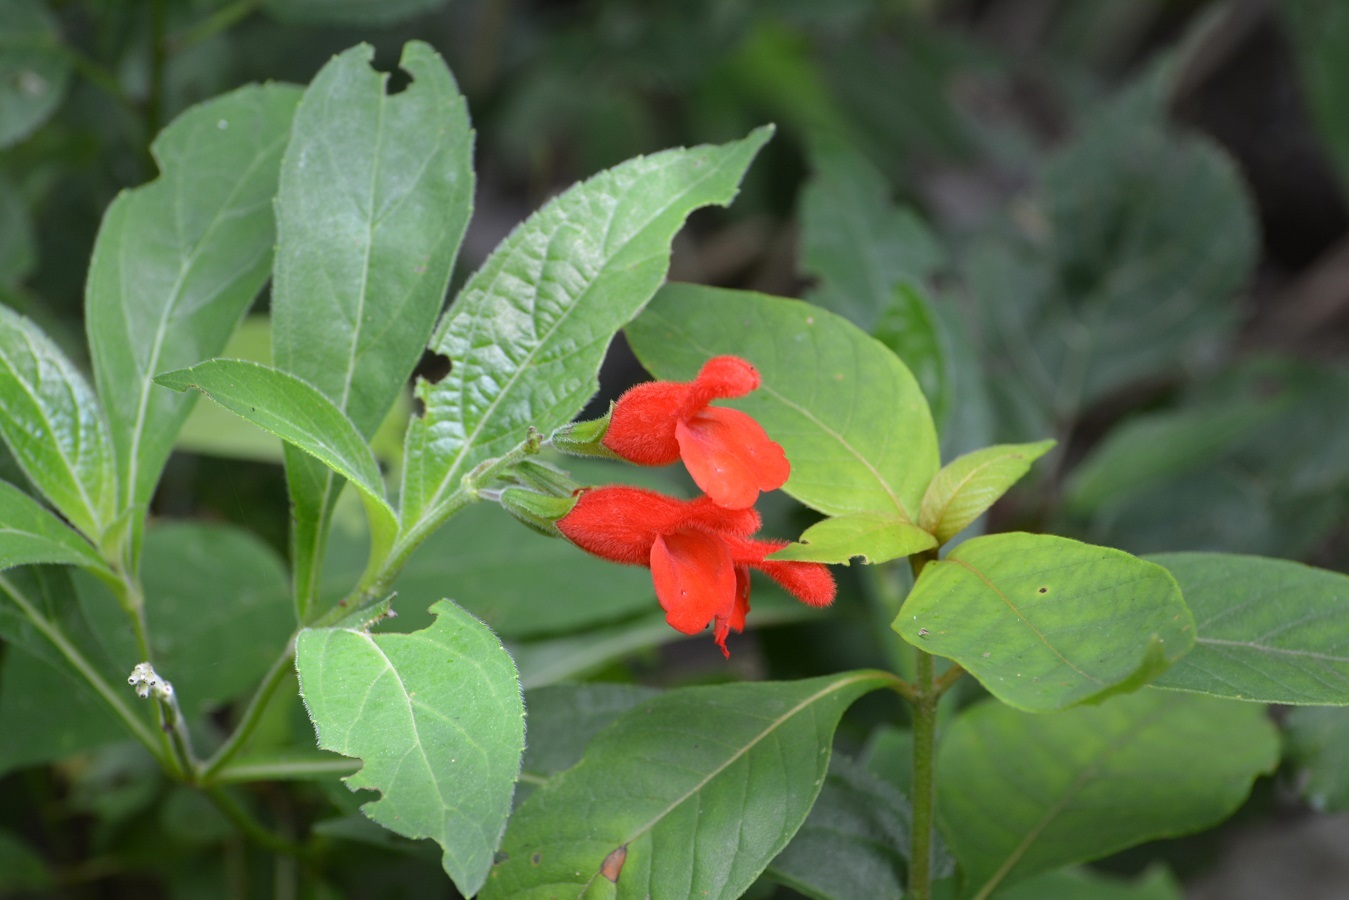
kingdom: Plantae
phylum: Tracheophyta
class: Magnoliopsida
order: Lamiales
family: Lamiaceae
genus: Salvia
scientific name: Salvia miniata
